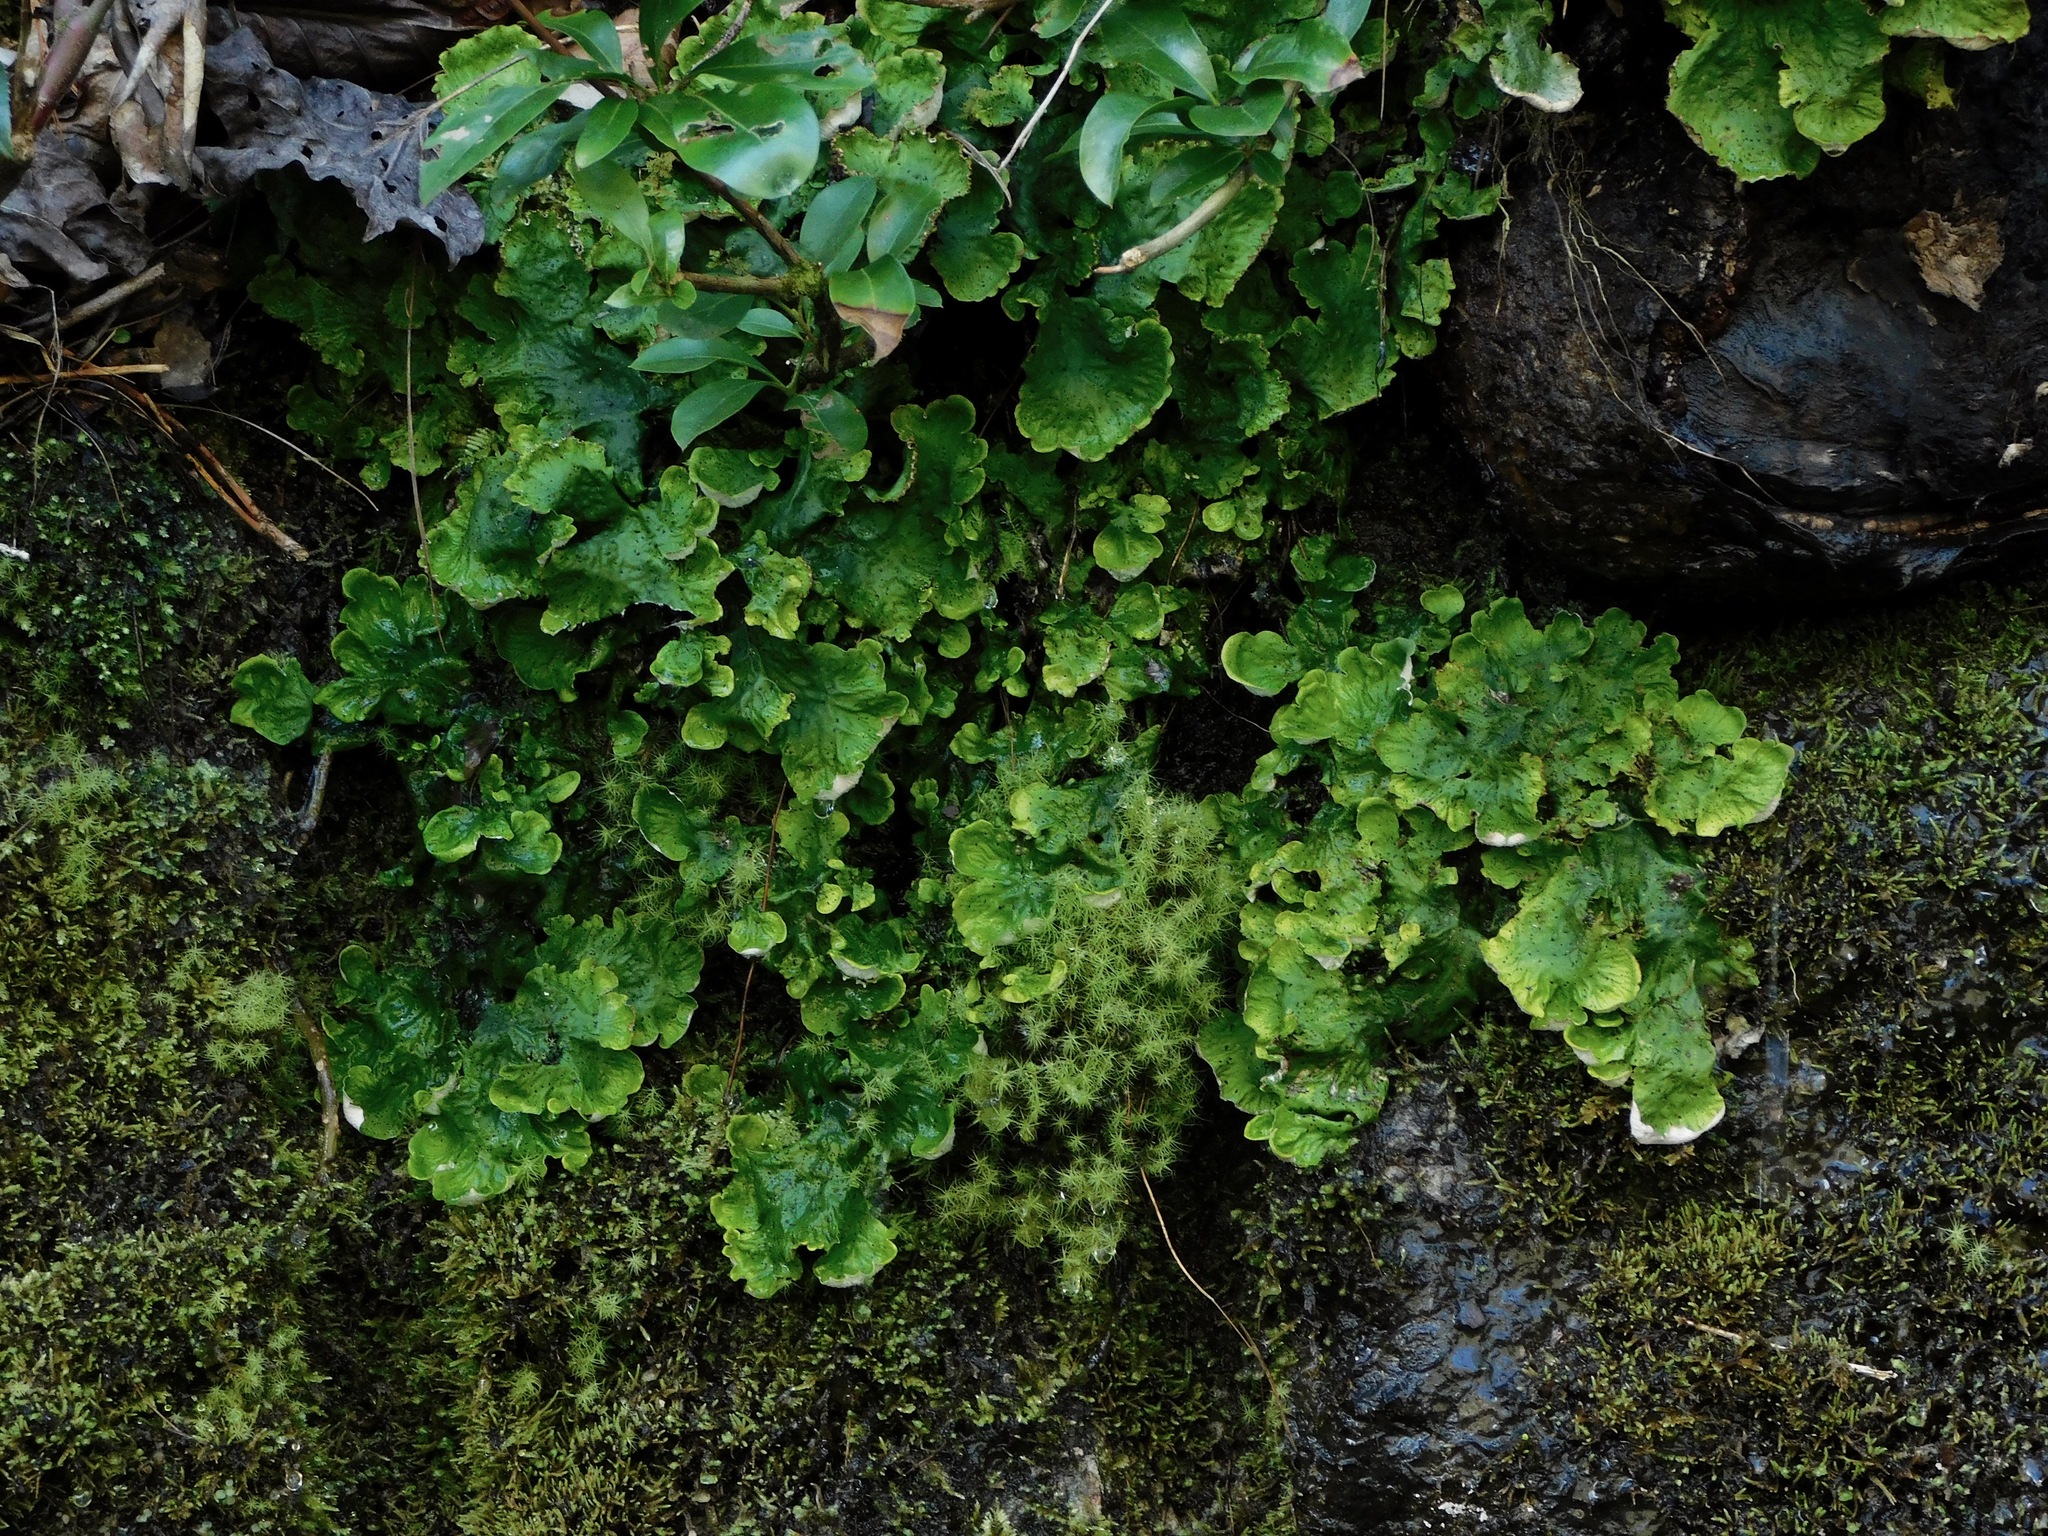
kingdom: Fungi
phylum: Ascomycota
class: Lecanoromycetes
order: Peltigerales
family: Peltigeraceae
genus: Peltigera
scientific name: Peltigera leucophlebia
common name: Ruffled freckle pelt lichen
